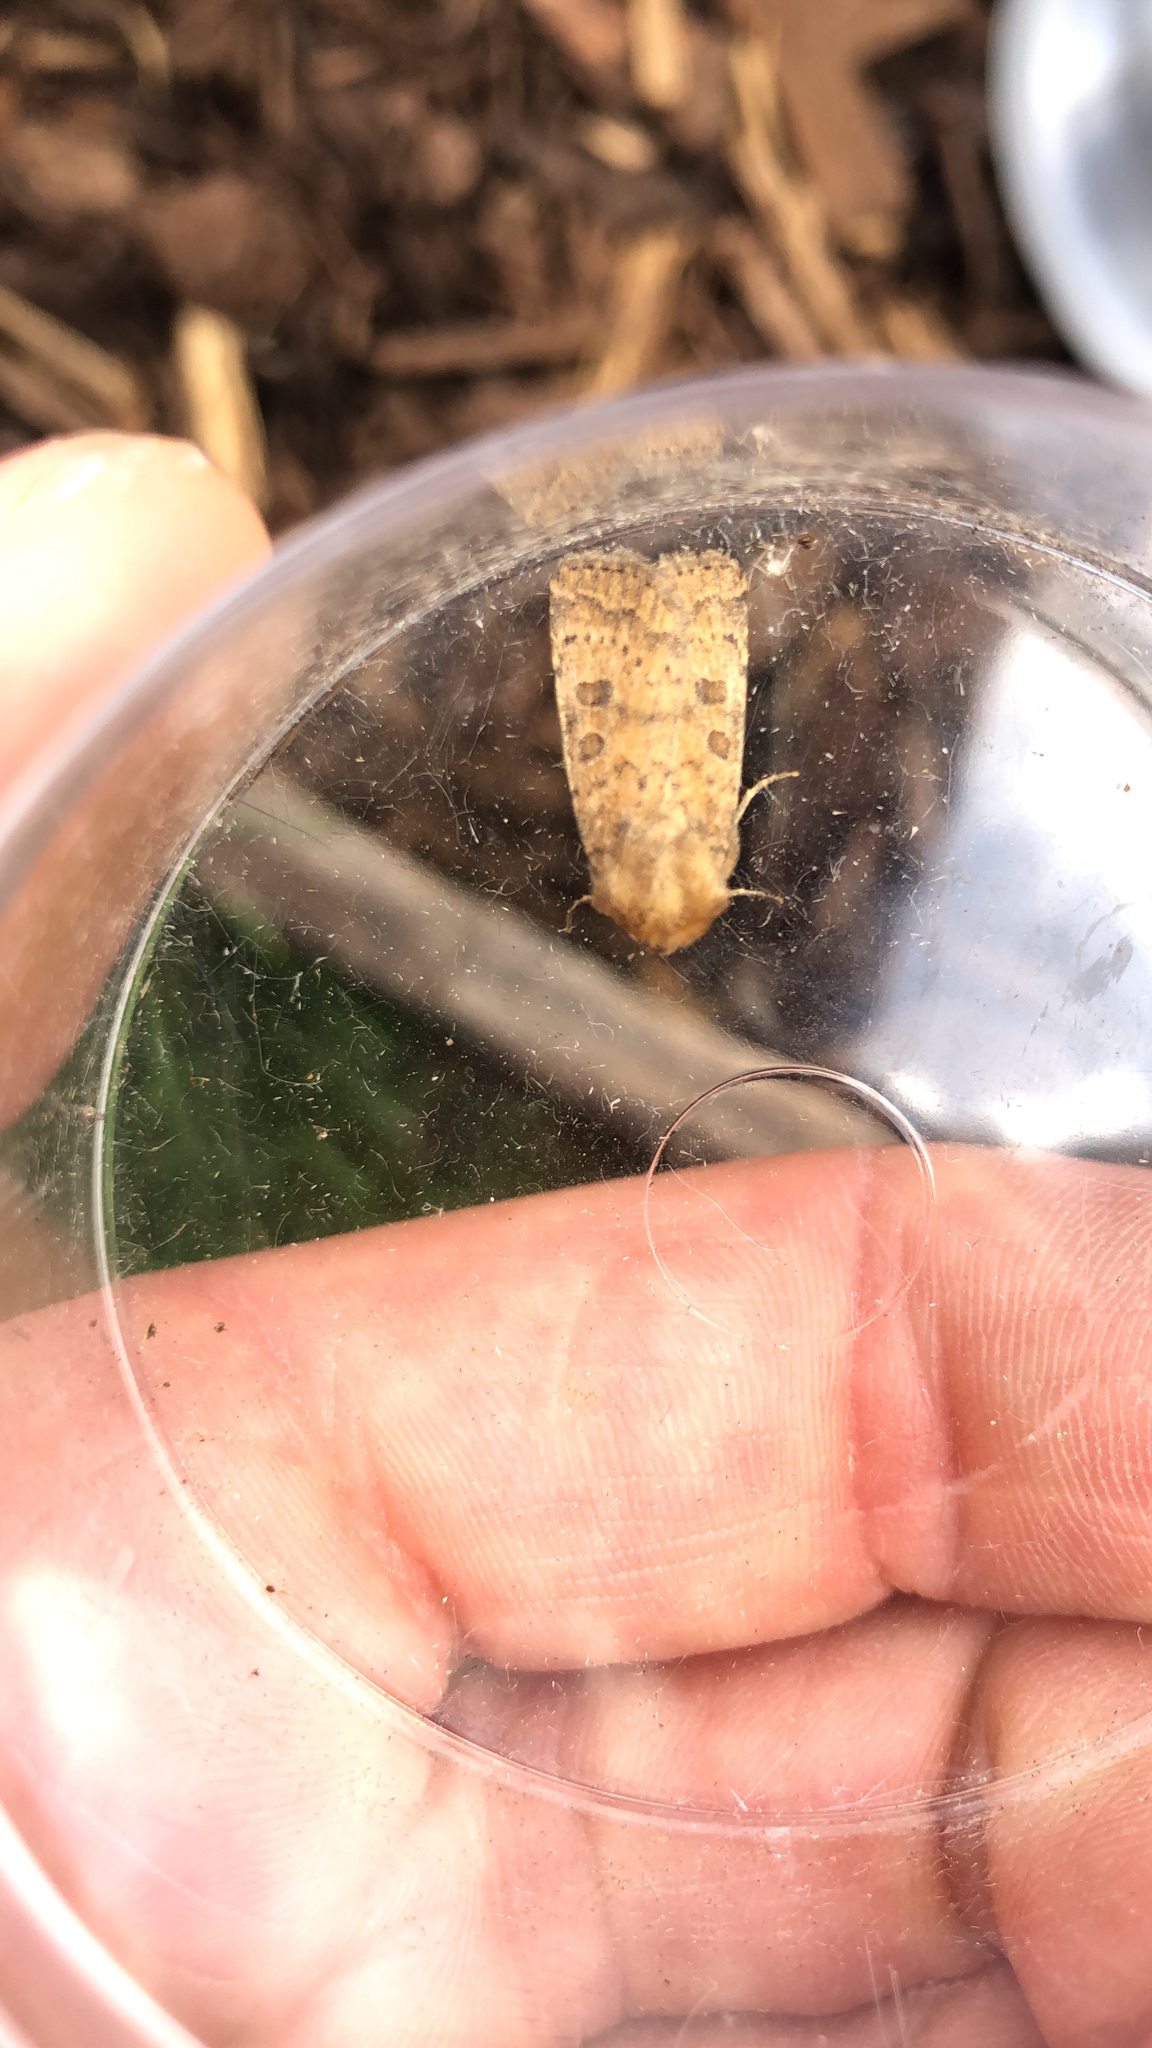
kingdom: Animalia
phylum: Arthropoda
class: Insecta
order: Lepidoptera
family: Noctuidae
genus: Hoplodrina
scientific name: Hoplodrina octogenaria
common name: Uncertain
